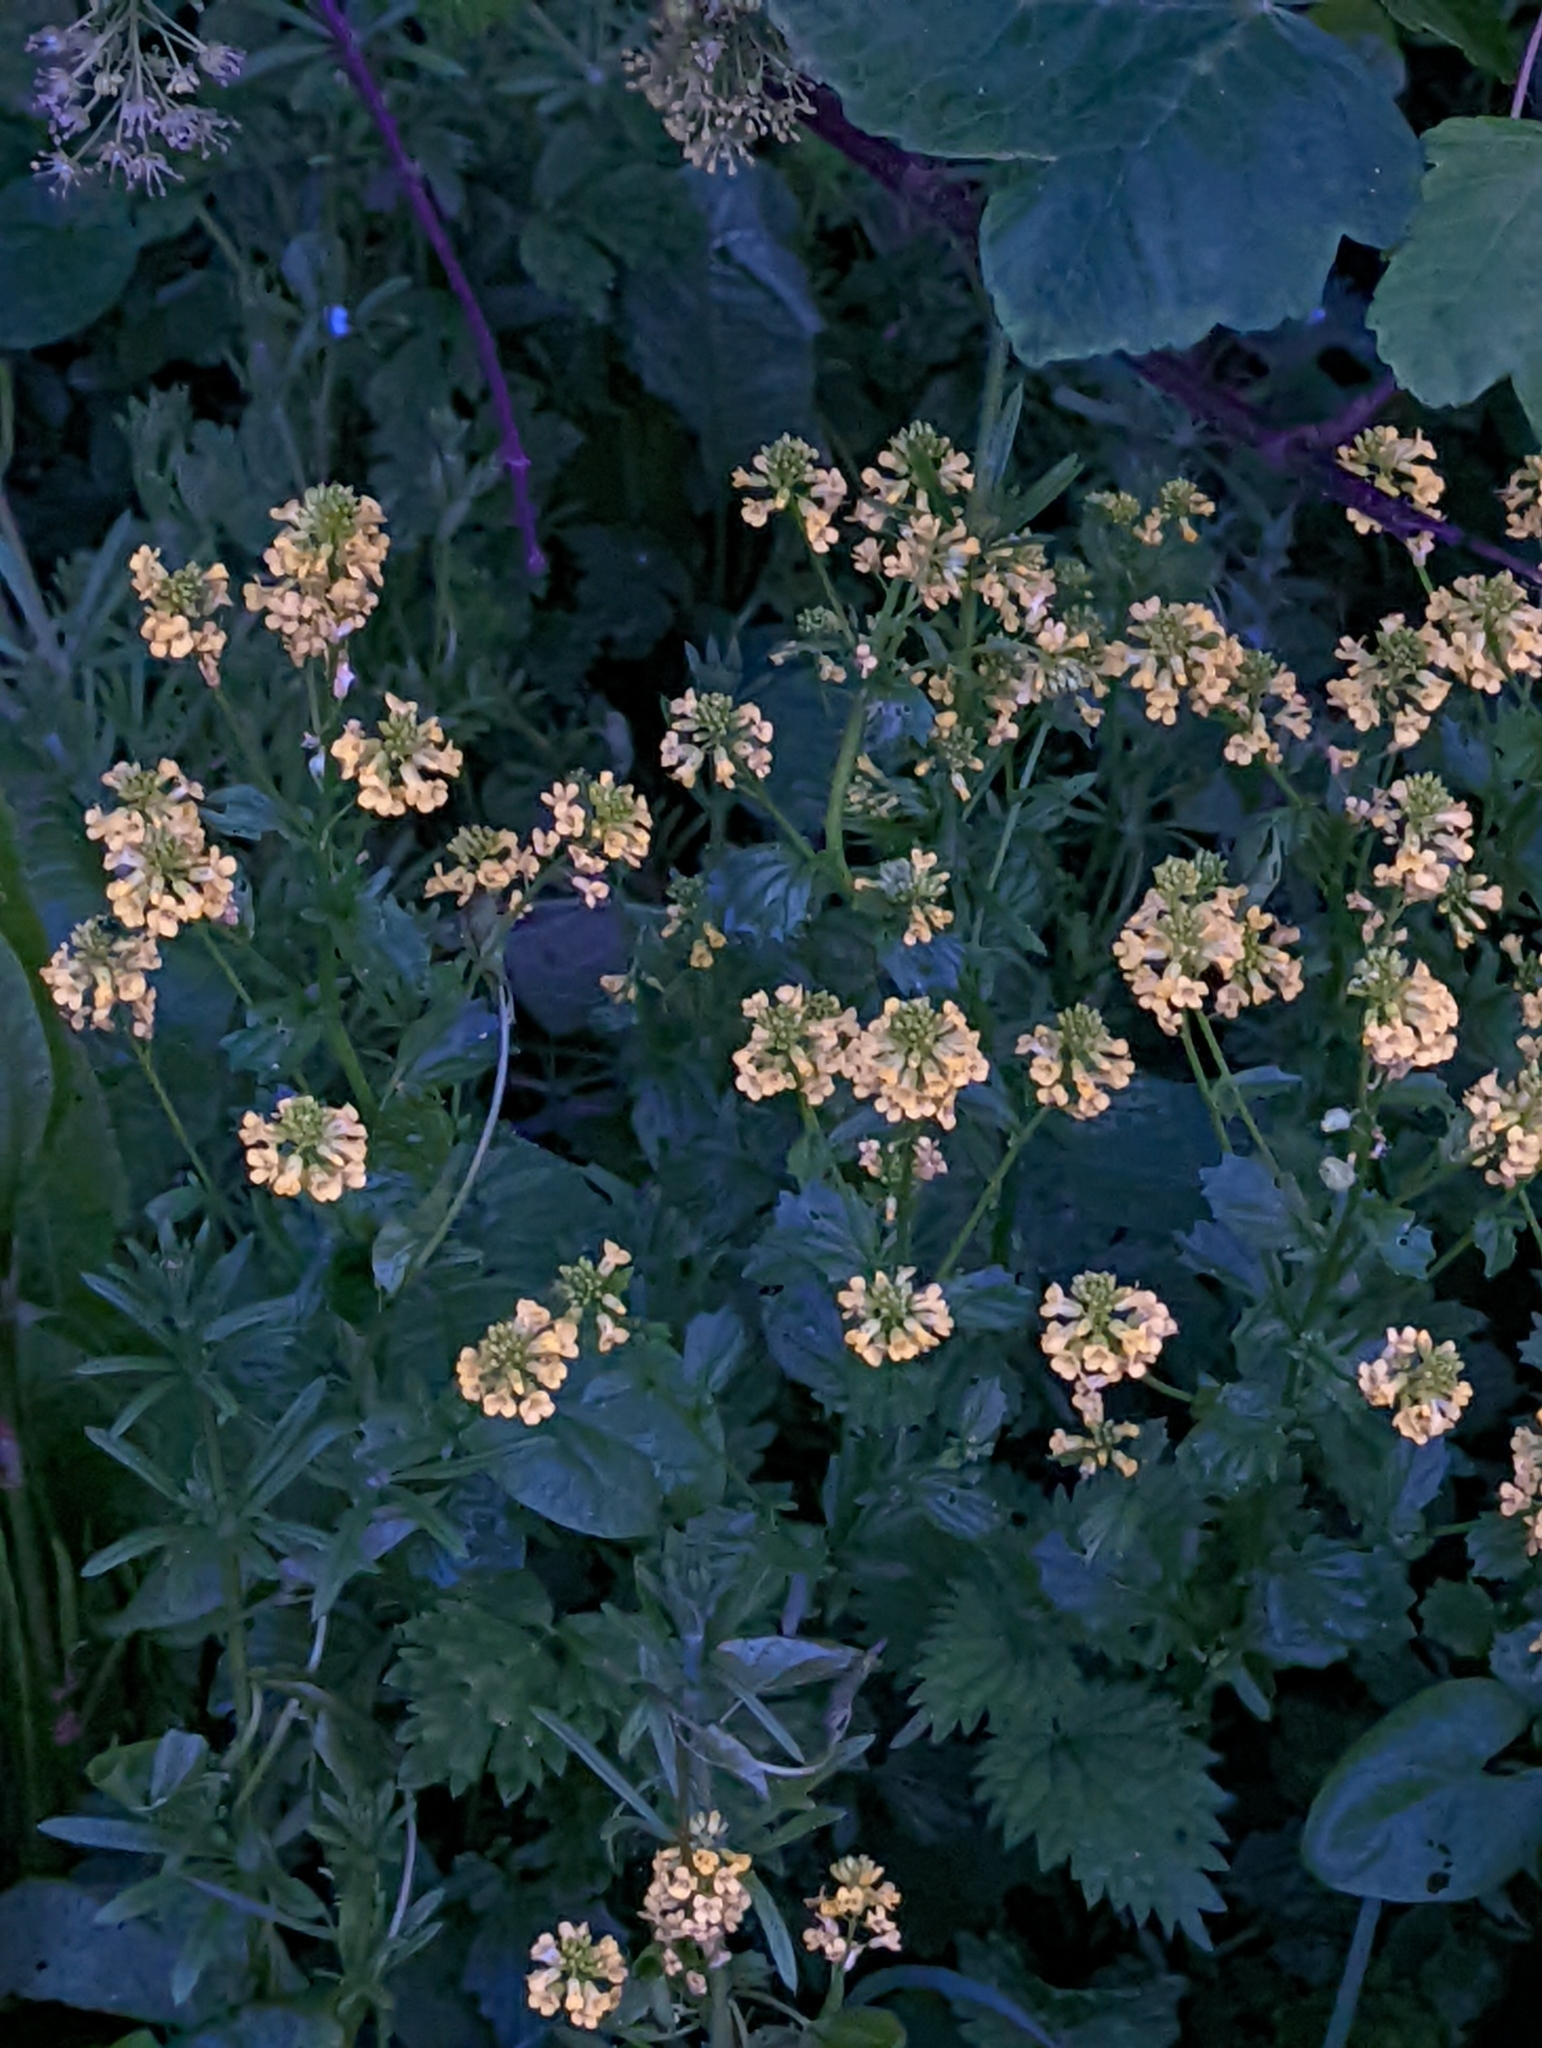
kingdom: Plantae
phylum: Tracheophyta
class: Magnoliopsida
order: Brassicales
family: Brassicaceae
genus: Barbarea
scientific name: Barbarea vulgaris
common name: Cressy-greens
